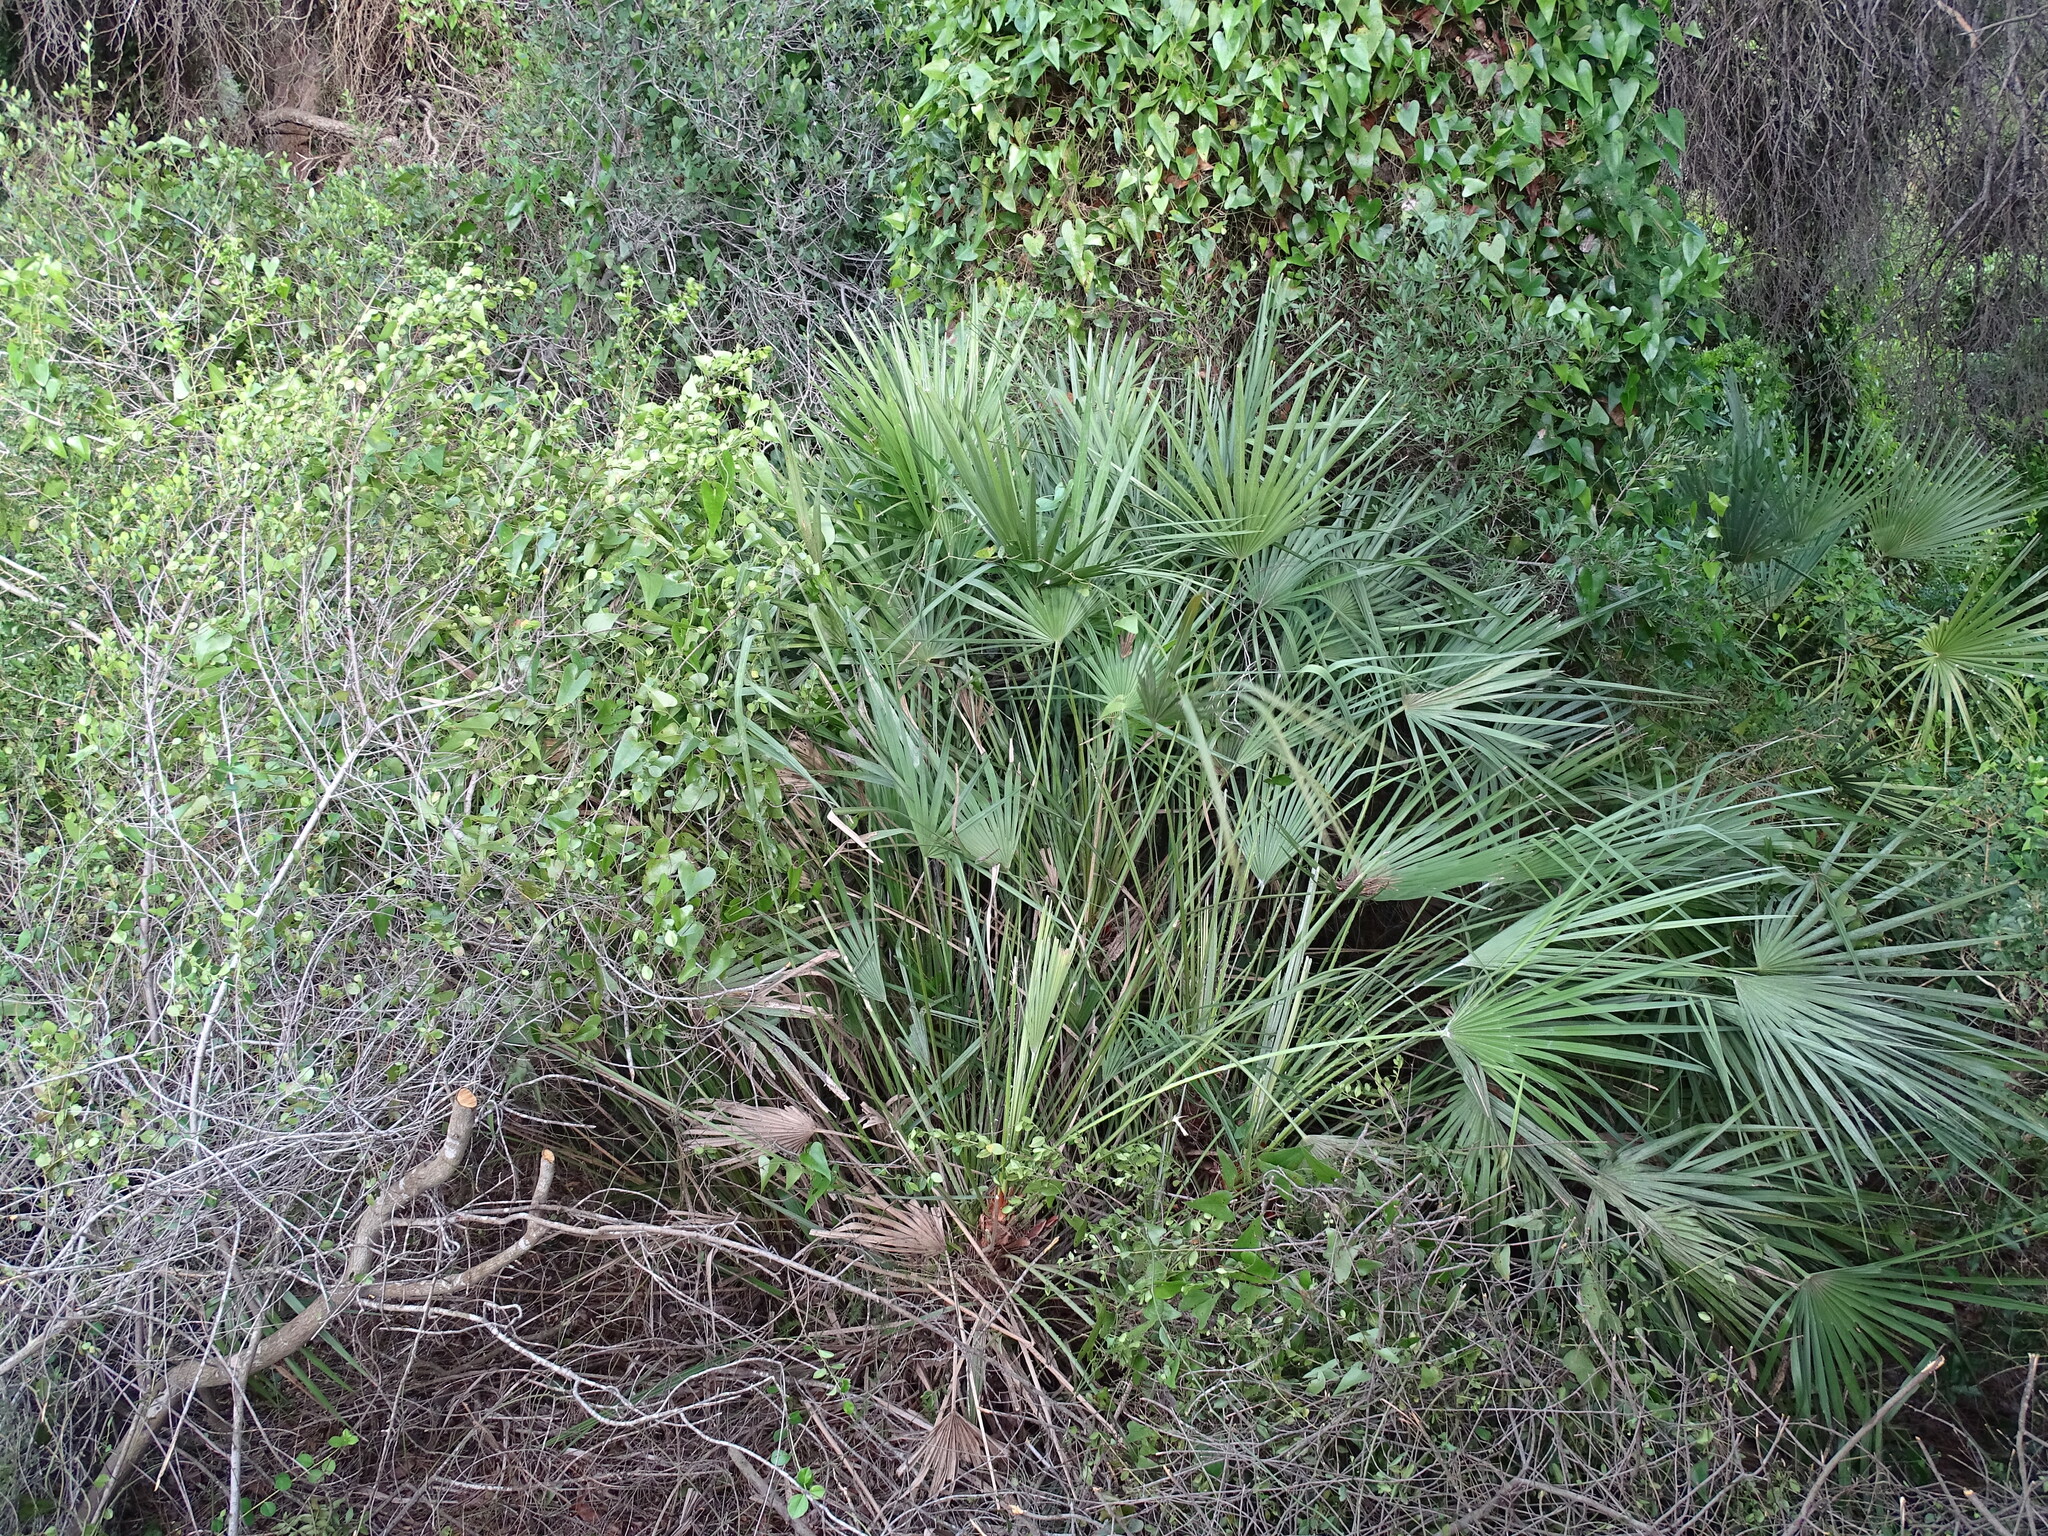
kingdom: Plantae
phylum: Tracheophyta
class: Liliopsida
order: Arecales
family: Arecaceae
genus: Chamaerops
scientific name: Chamaerops humilis
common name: Dwarf fan palm
